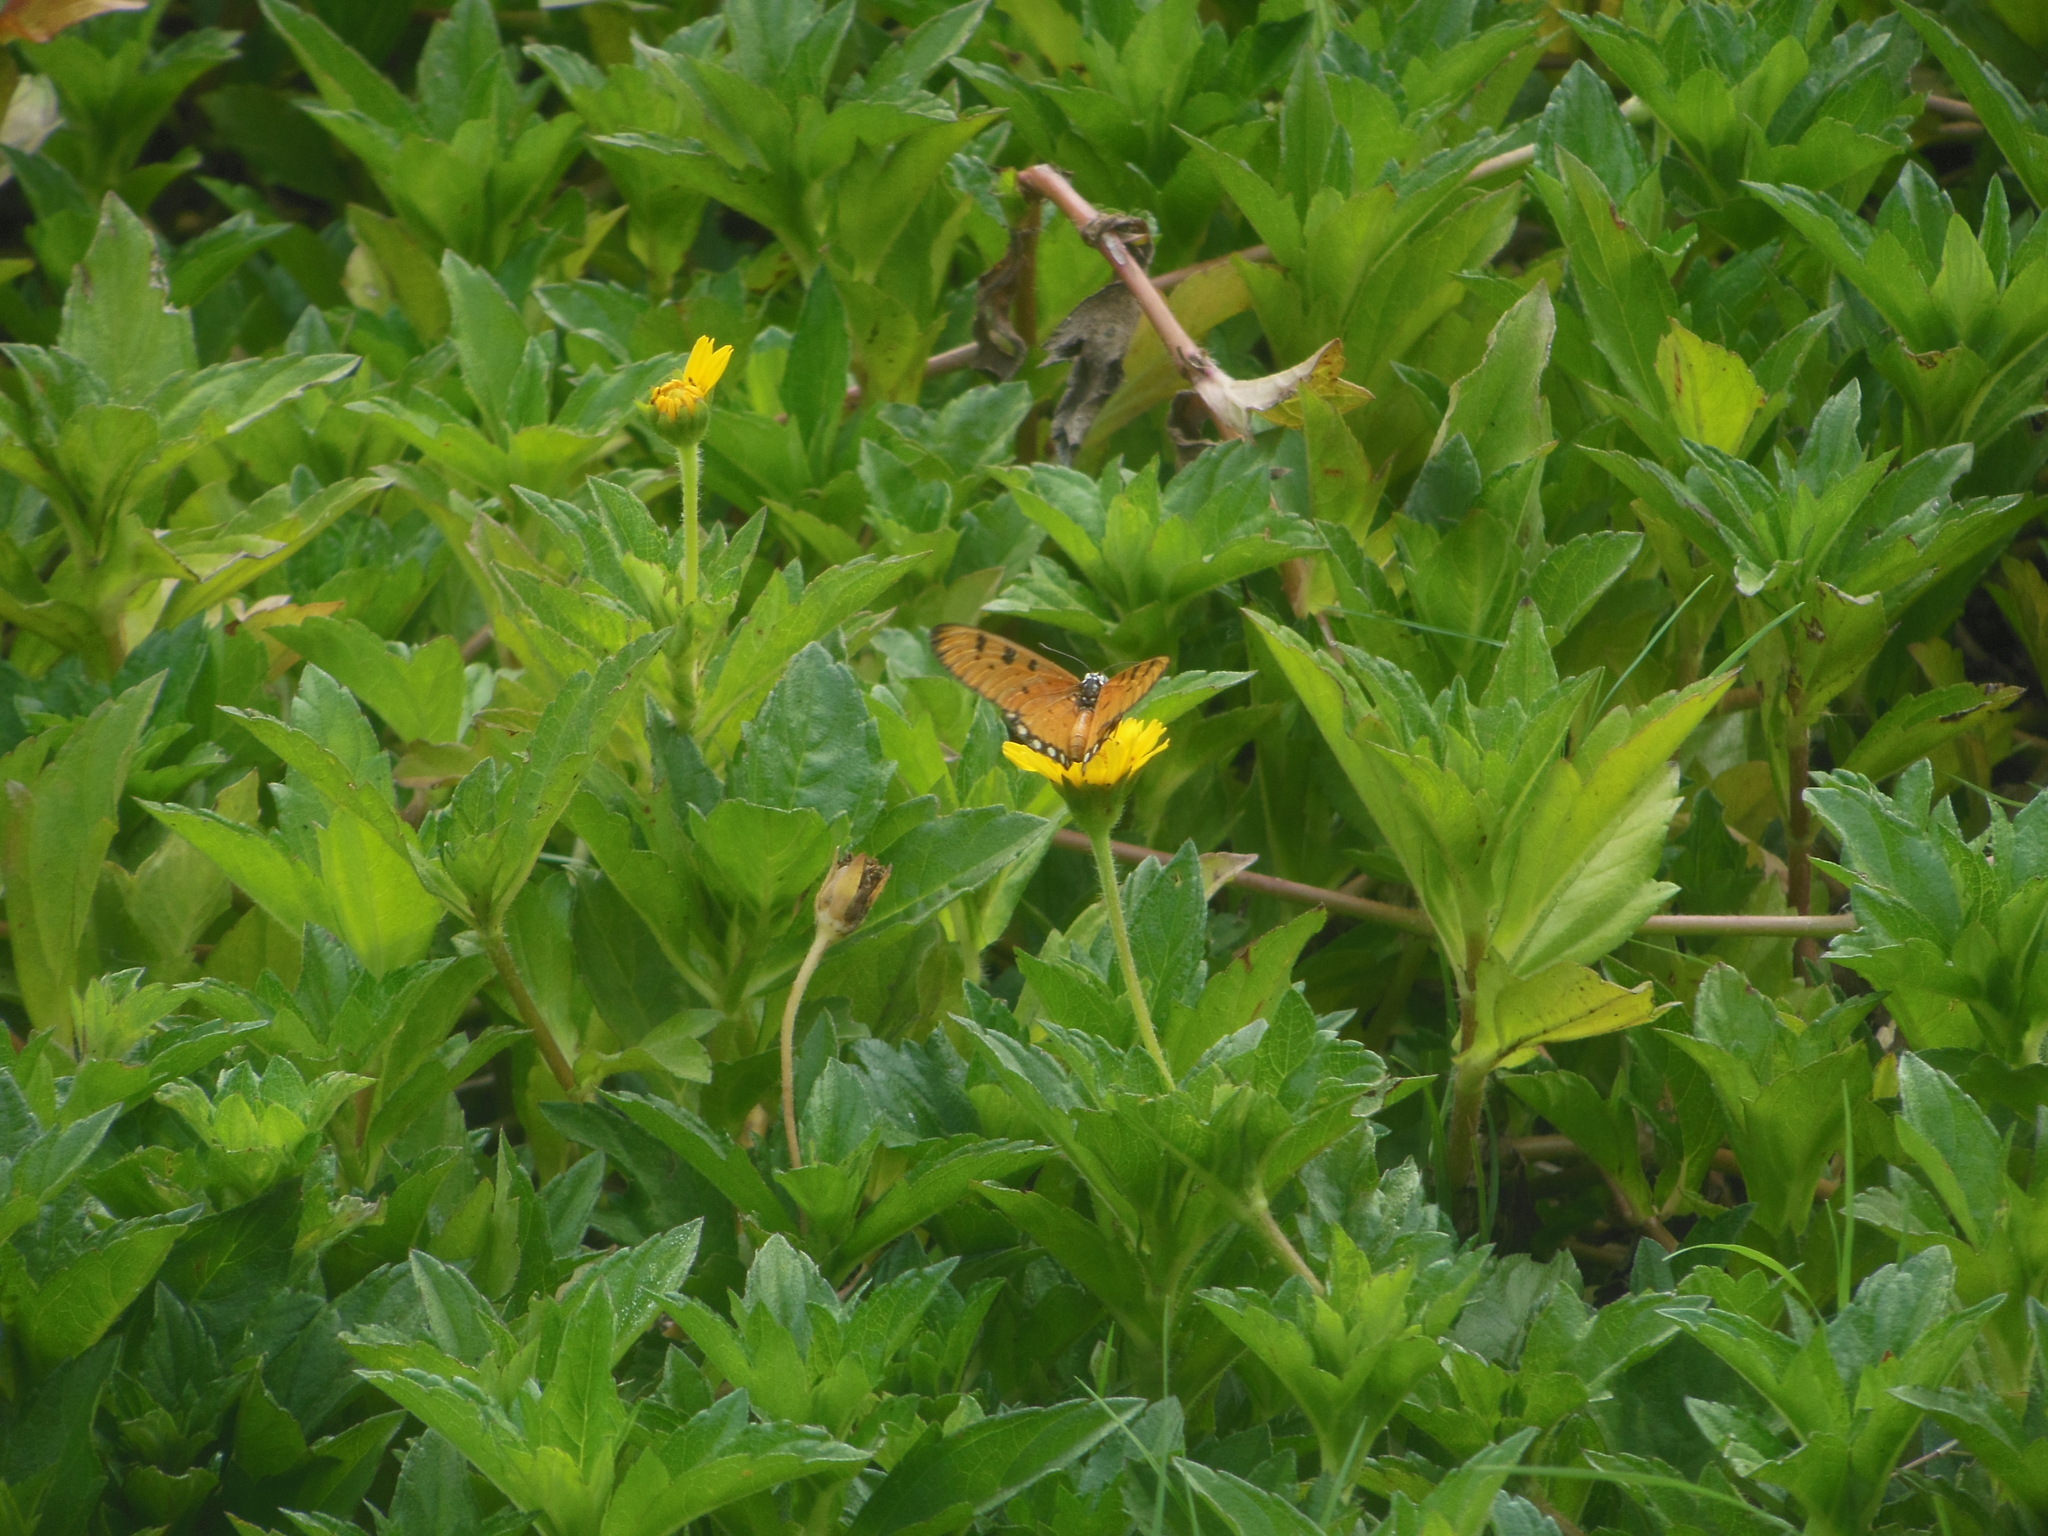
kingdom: Animalia
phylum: Arthropoda
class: Insecta
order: Lepidoptera
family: Nymphalidae
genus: Acraea
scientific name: Acraea terpsicore
